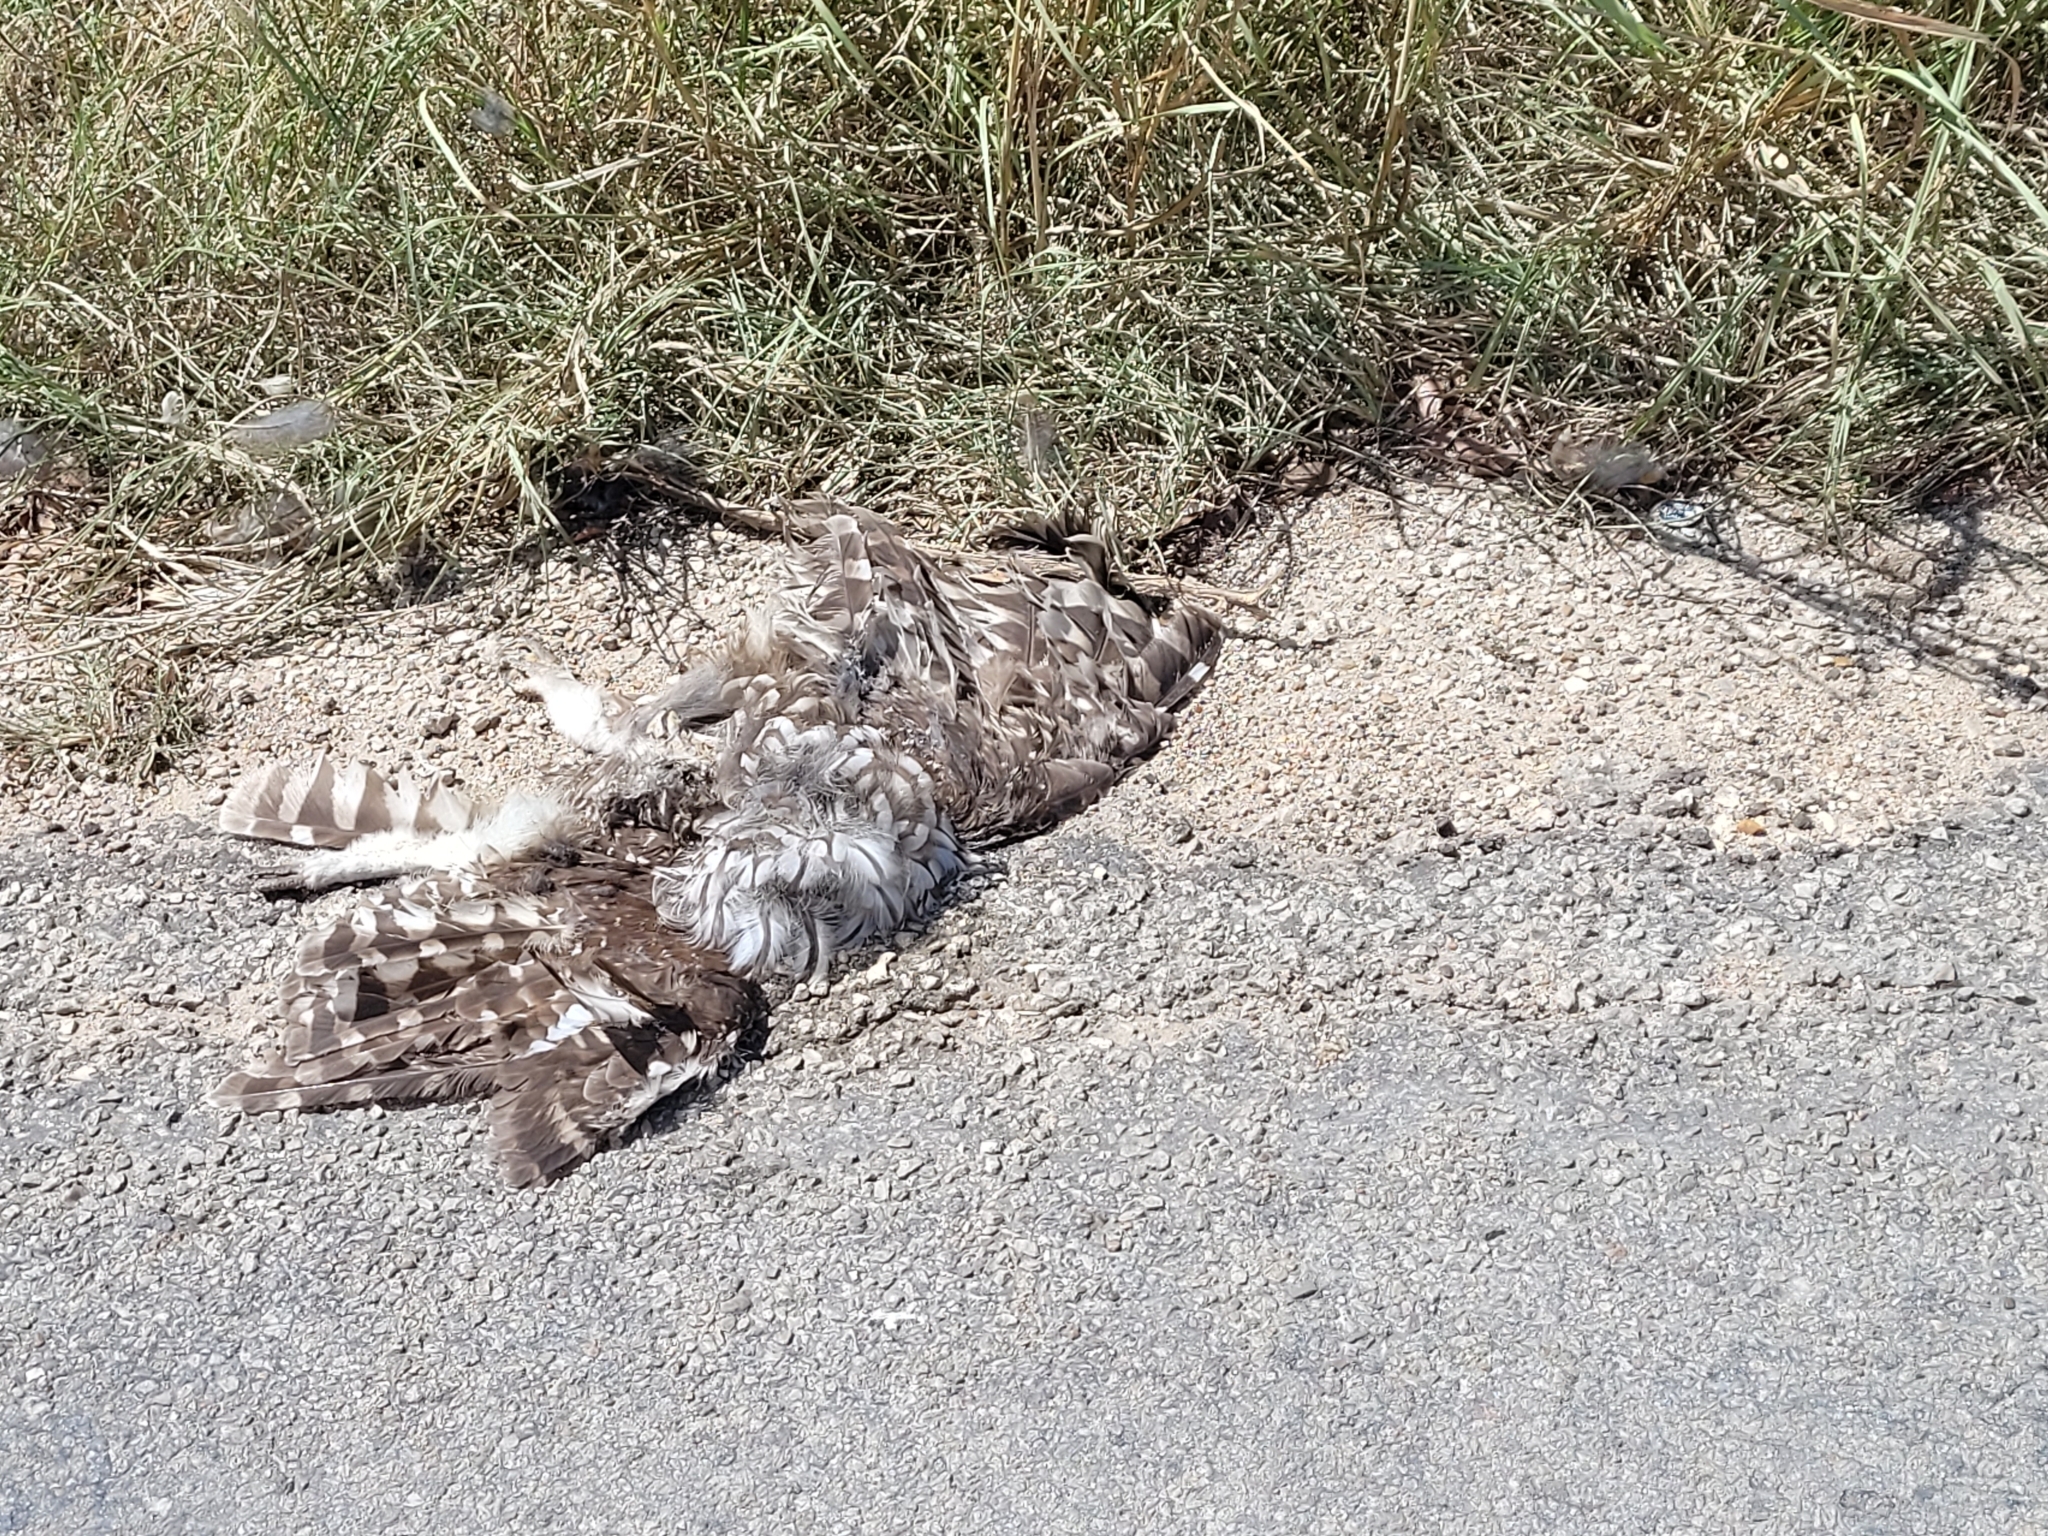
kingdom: Animalia
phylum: Chordata
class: Aves
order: Strigiformes
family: Strigidae
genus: Strix
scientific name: Strix varia
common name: Barred owl
